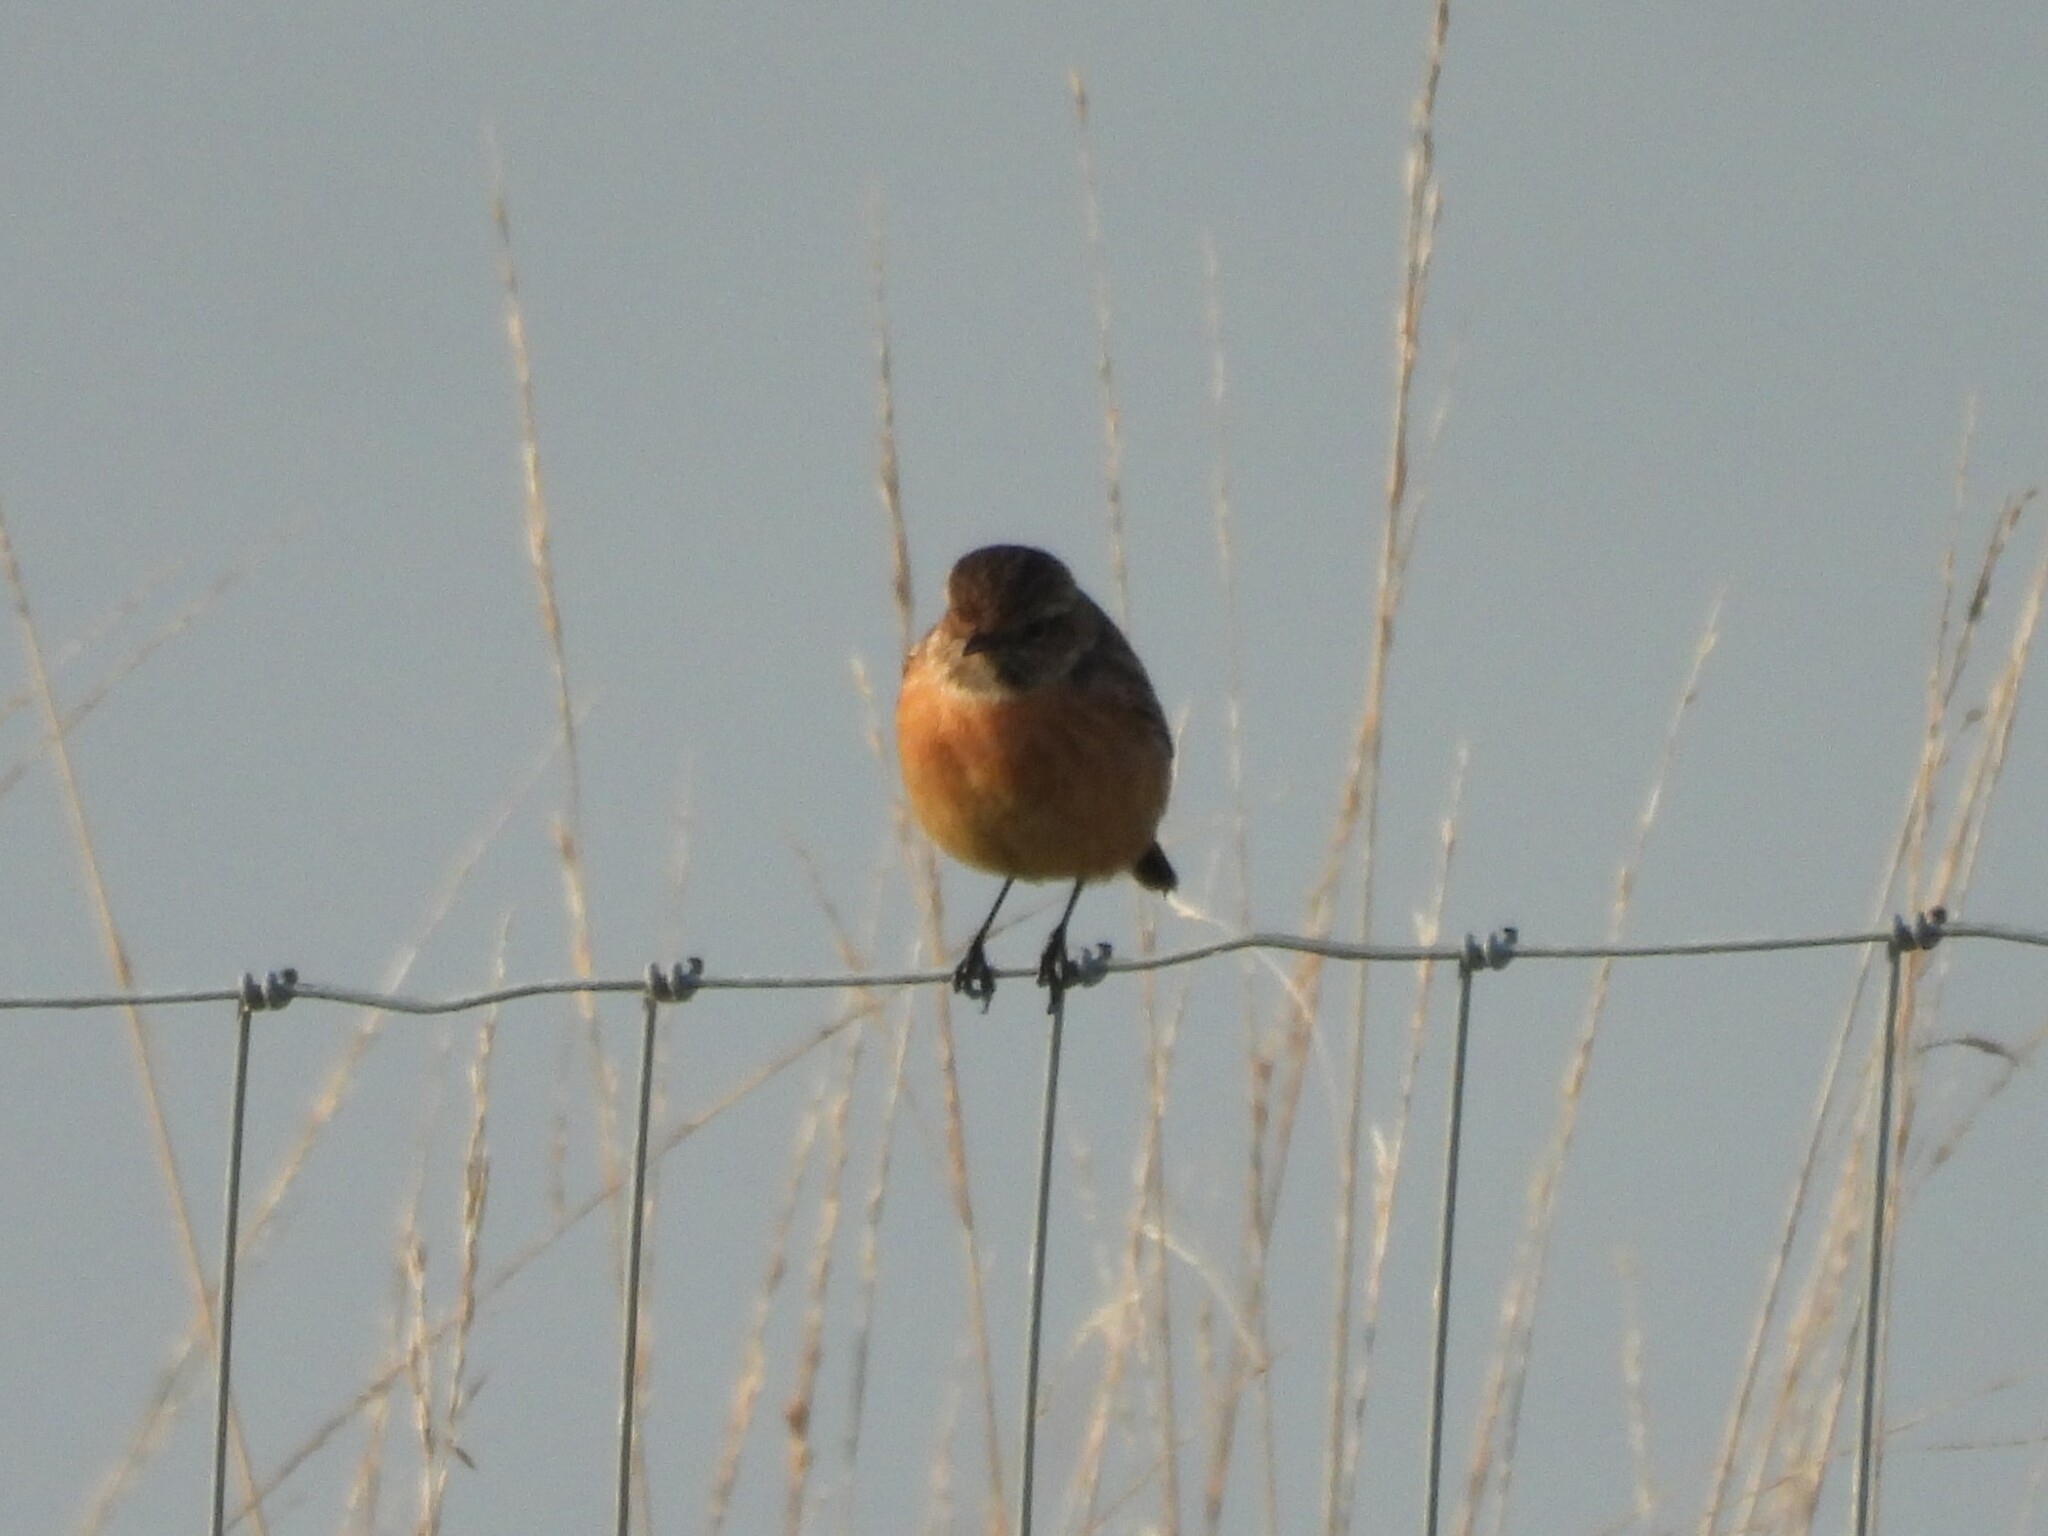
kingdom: Animalia
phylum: Chordata
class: Aves
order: Passeriformes
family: Muscicapidae
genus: Saxicola
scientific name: Saxicola rubicola
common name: European stonechat
